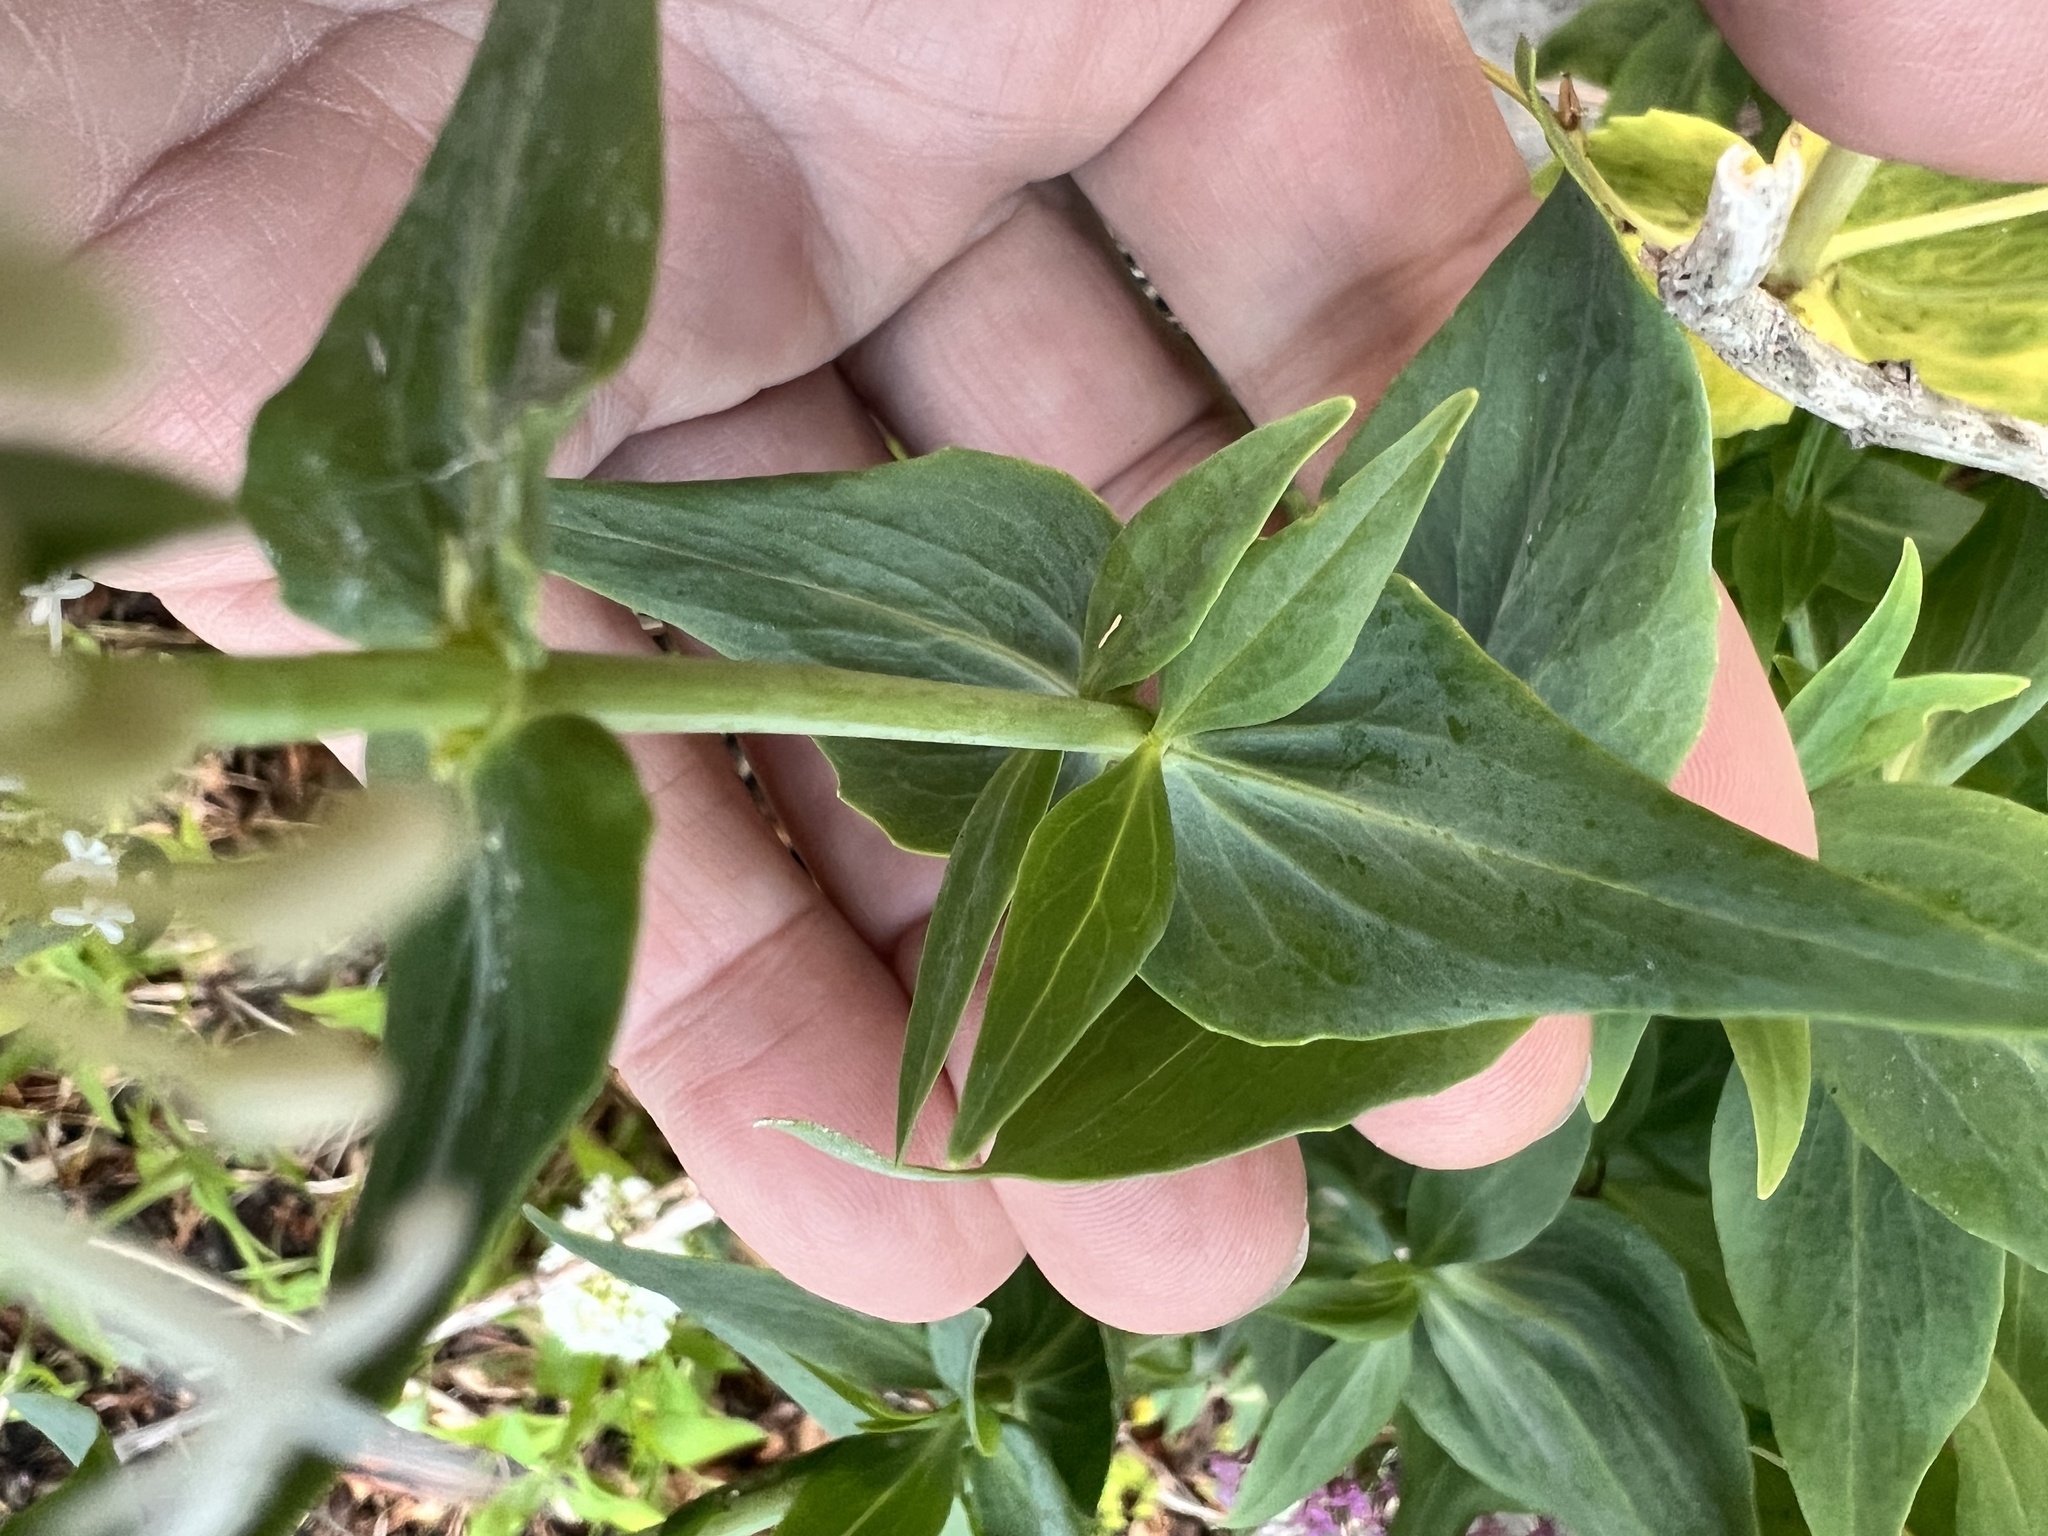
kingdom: Plantae
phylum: Tracheophyta
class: Magnoliopsida
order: Dipsacales
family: Caprifoliaceae
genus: Centranthus
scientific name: Centranthus ruber
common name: Red valerian
